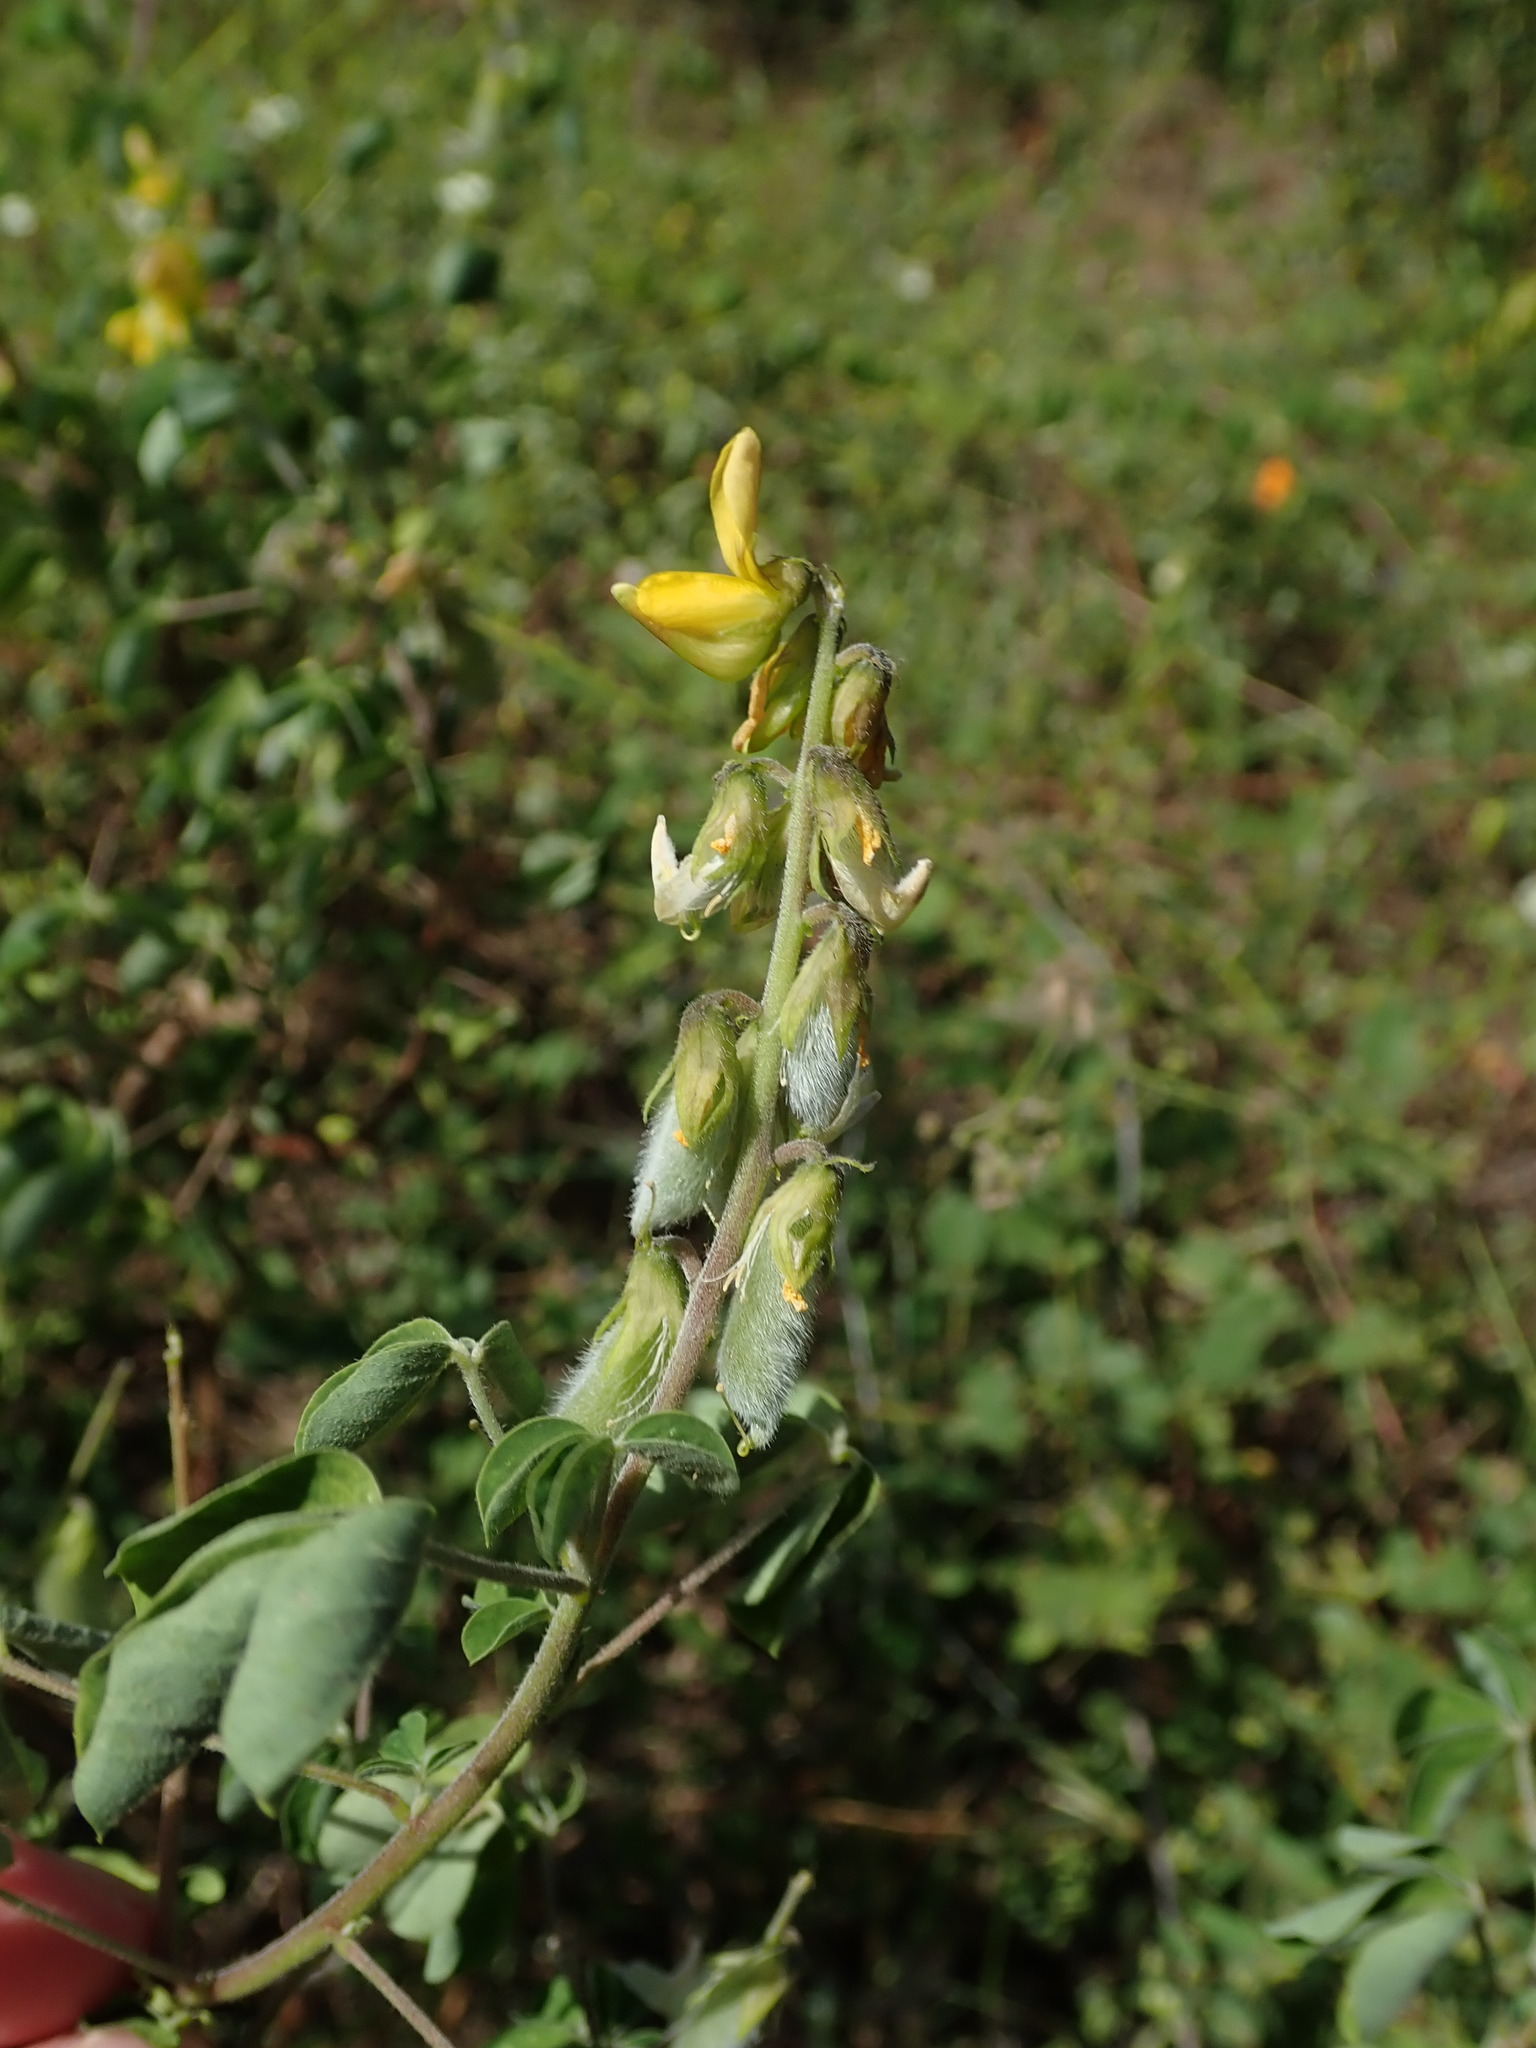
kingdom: Plantae
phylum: Tracheophyta
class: Magnoliopsida
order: Fabales
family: Fabaceae
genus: Crotalaria
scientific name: Crotalaria incana
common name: Shakeshake
